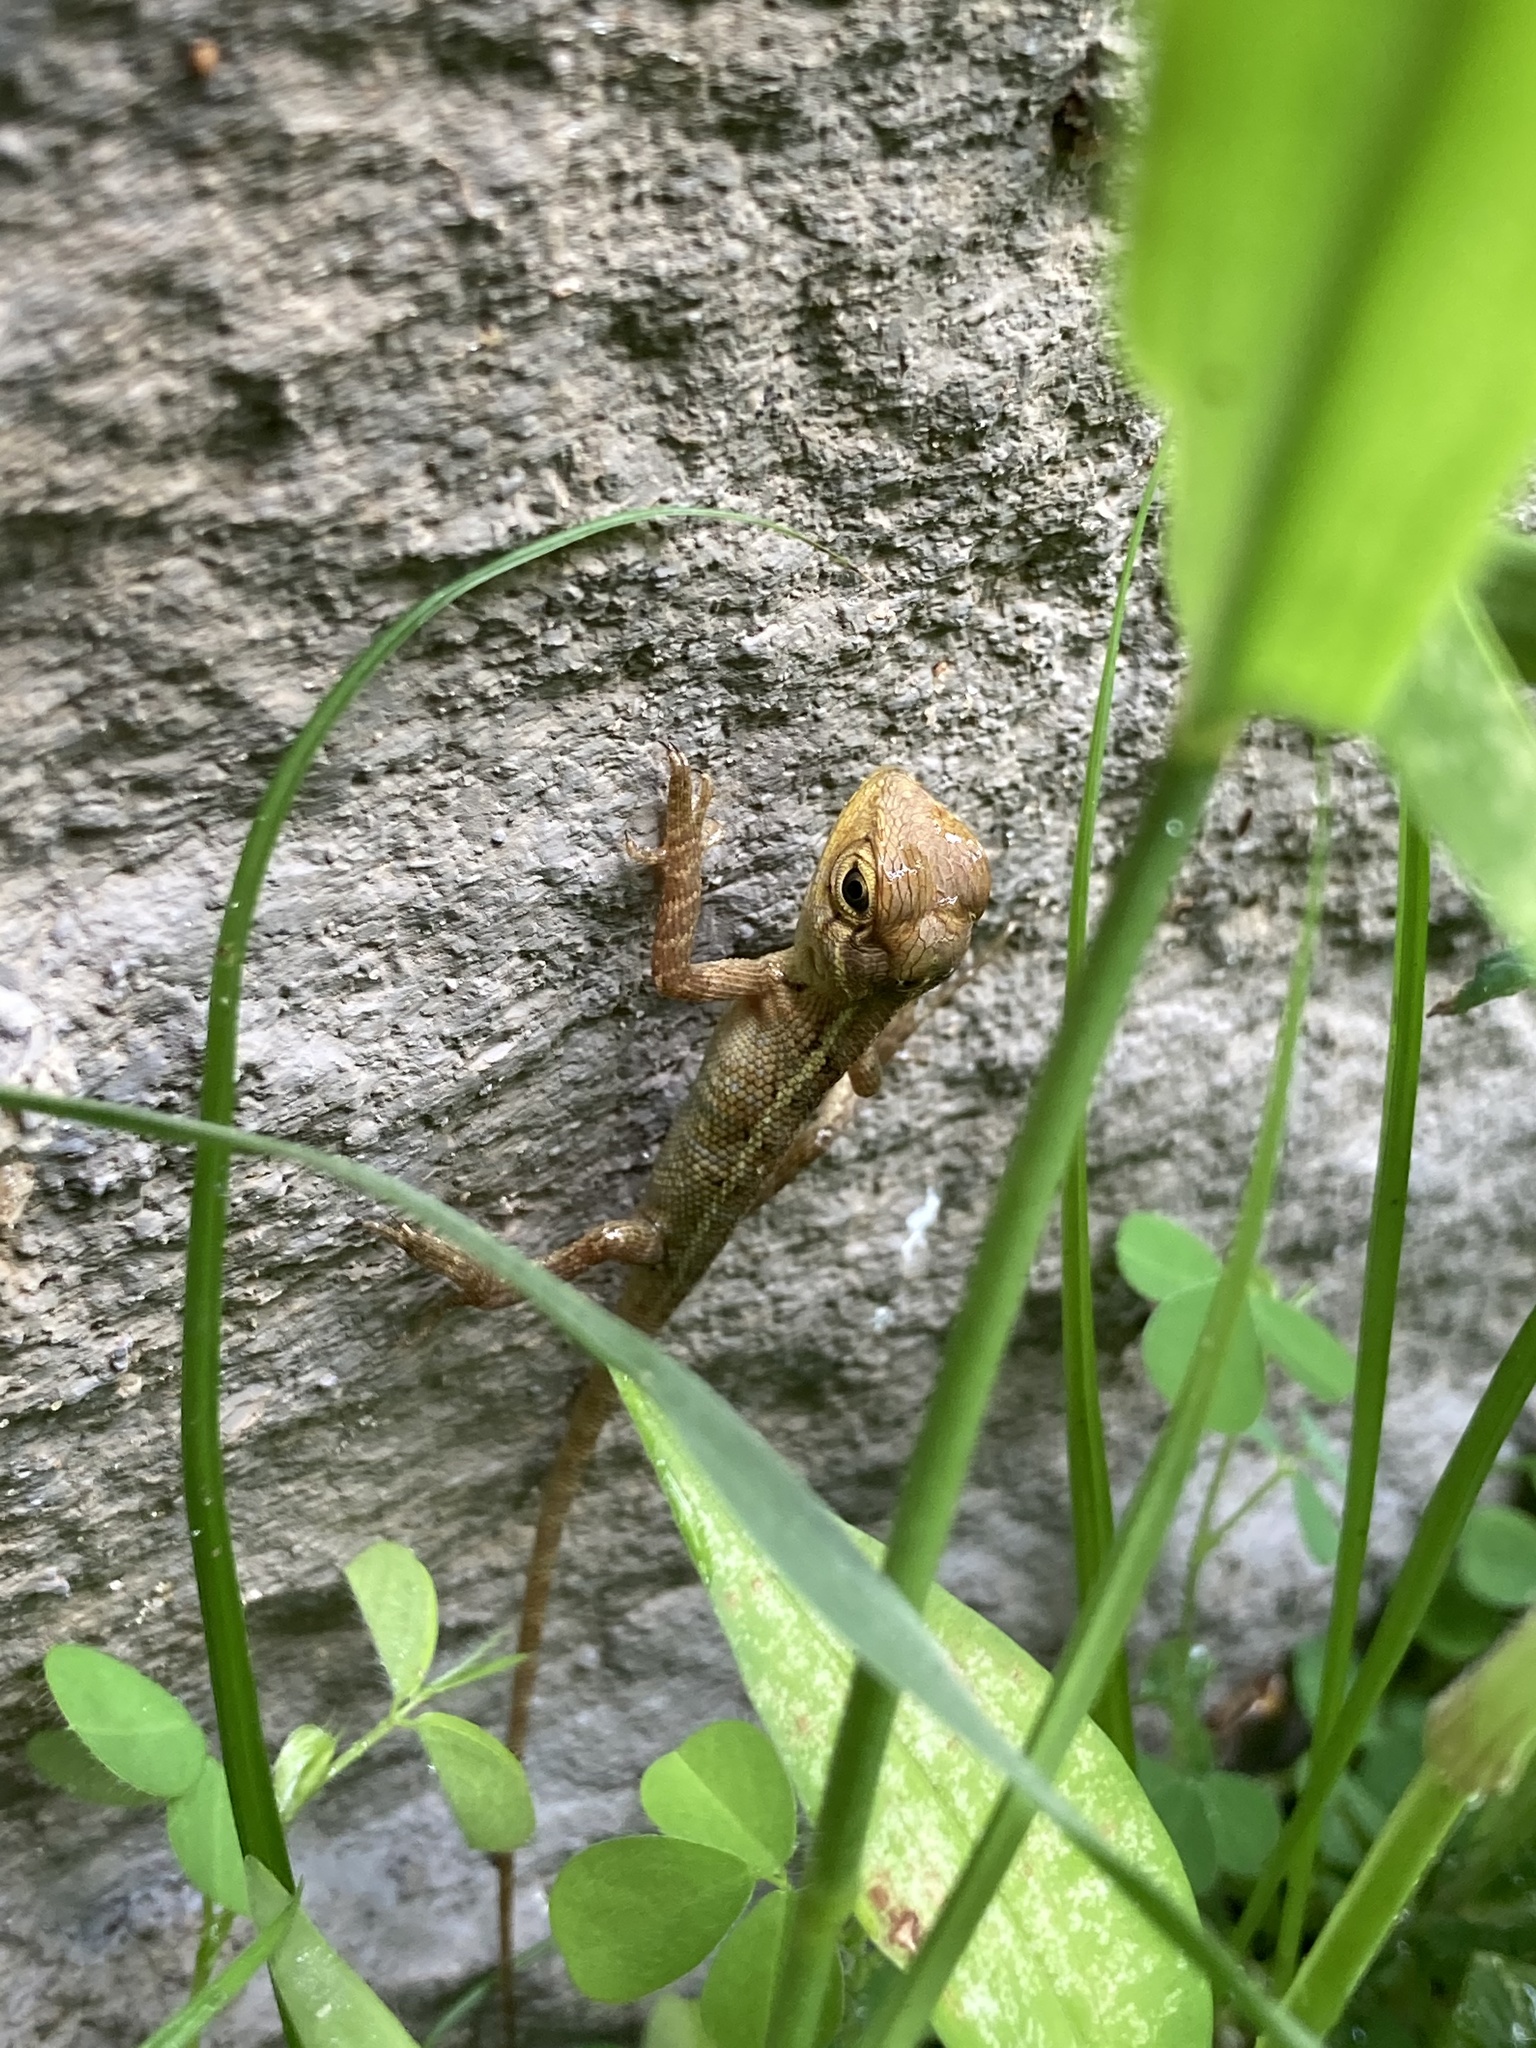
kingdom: Animalia
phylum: Chordata
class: Squamata
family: Agamidae
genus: Calotes
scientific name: Calotes versicolor
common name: Oriental garden lizard
